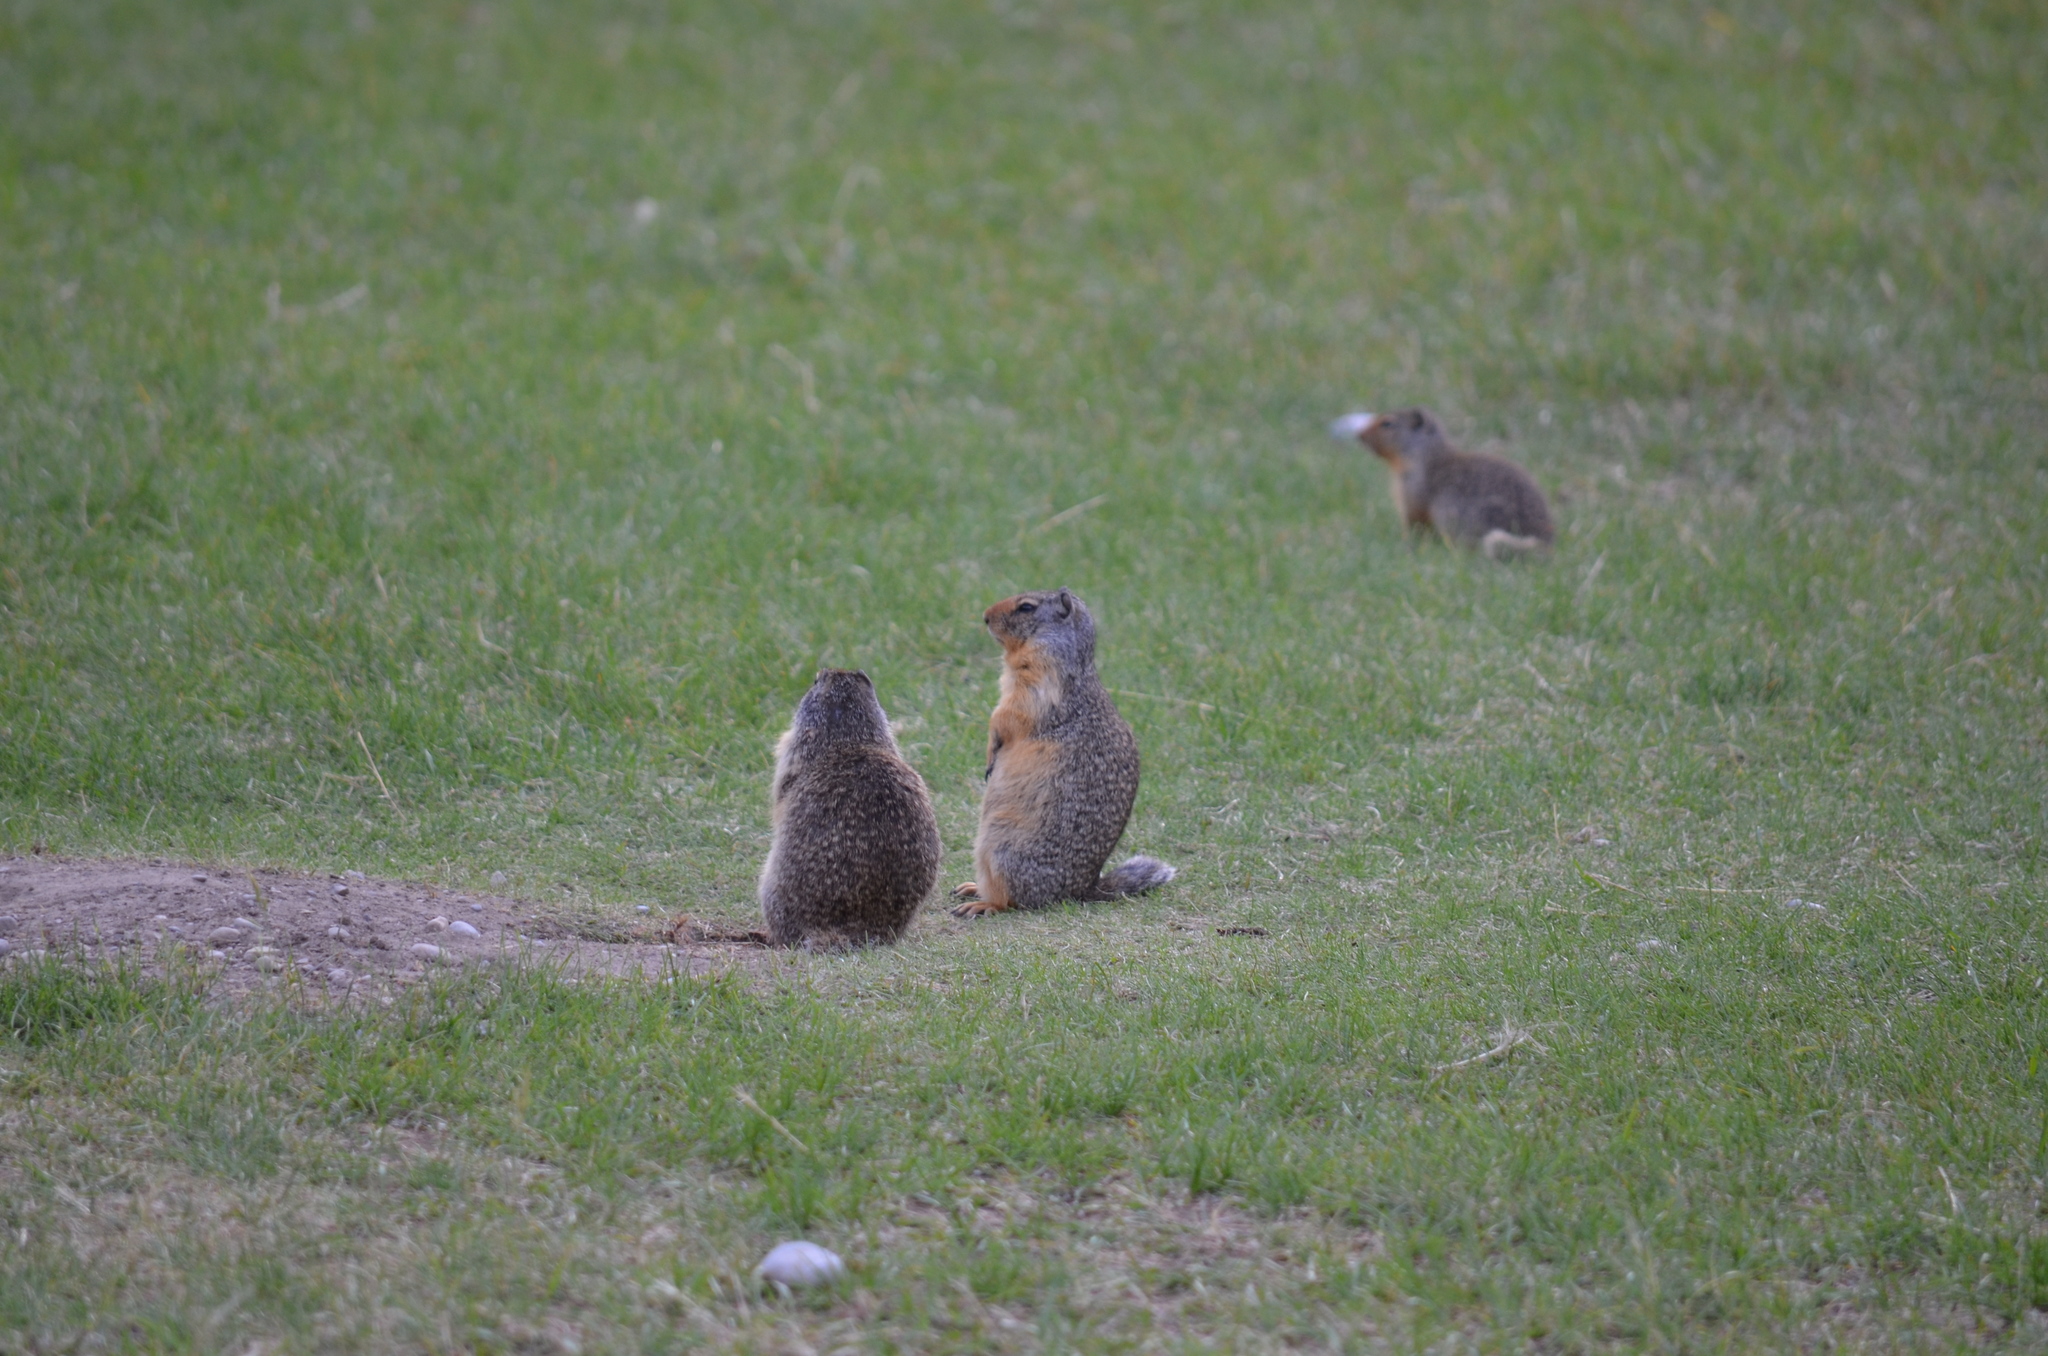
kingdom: Animalia
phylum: Chordata
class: Mammalia
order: Rodentia
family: Sciuridae
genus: Urocitellus
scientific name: Urocitellus columbianus
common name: Columbian ground squirrel
